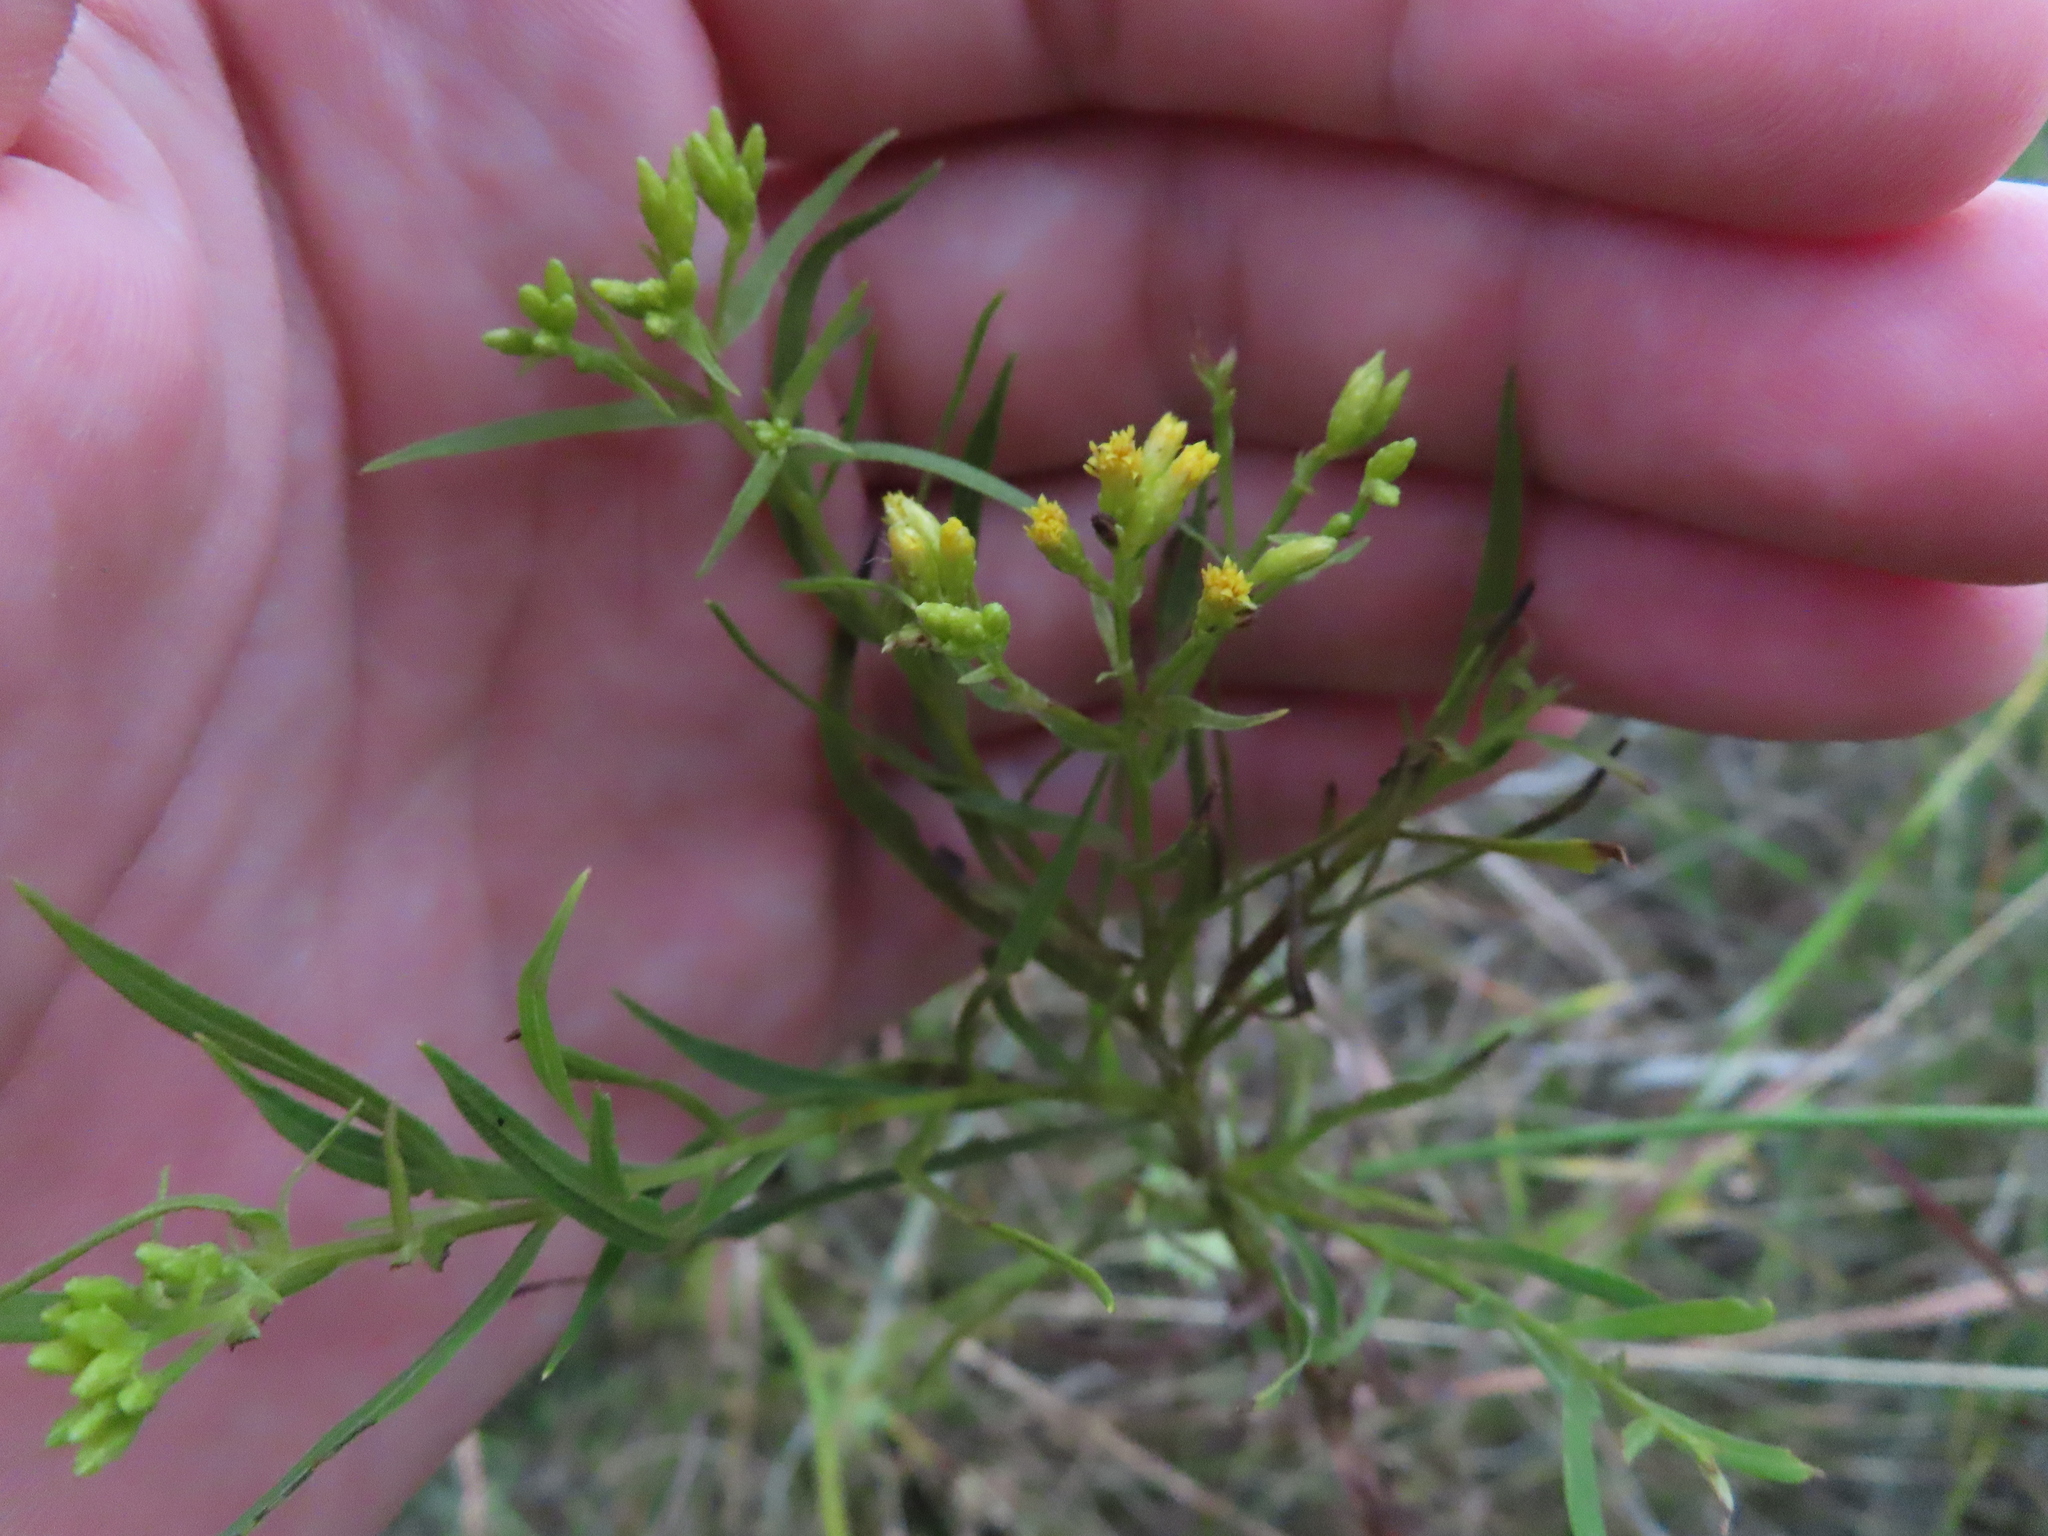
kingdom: Plantae
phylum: Tracheophyta
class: Magnoliopsida
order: Asterales
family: Asteraceae
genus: Euthamia
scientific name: Euthamia gymnospermoides
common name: Great plains goldentop
